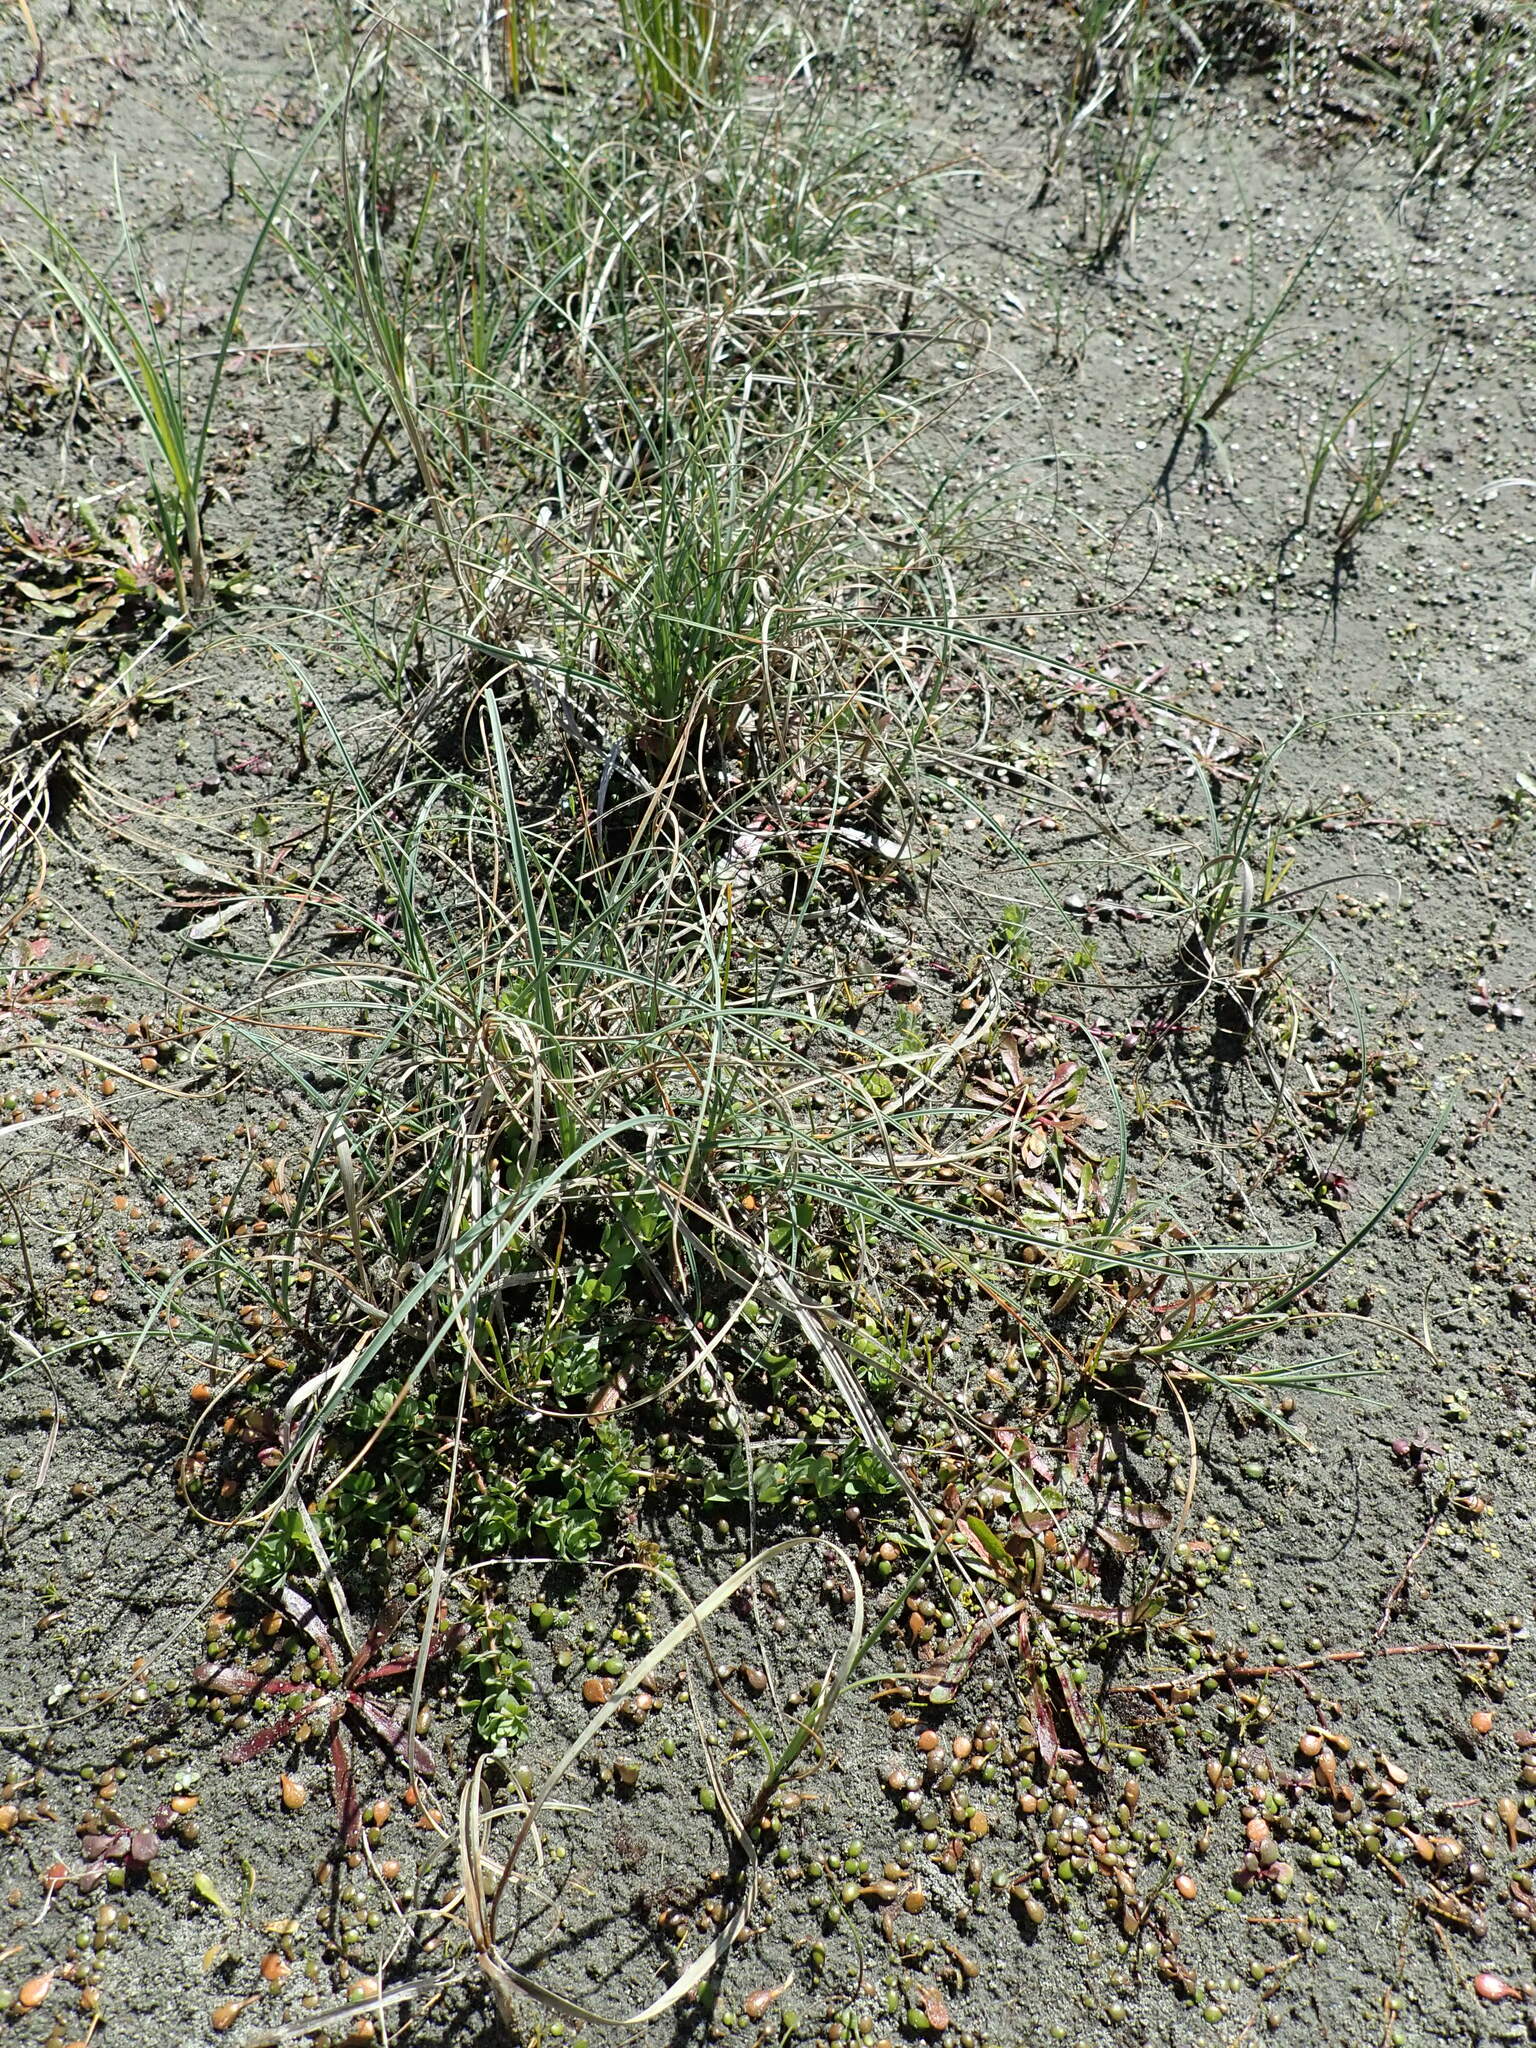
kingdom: Plantae
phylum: Tracheophyta
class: Liliopsida
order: Poales
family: Cyperaceae
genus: Carex
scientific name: Carex pumila
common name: Dwarf sedge
